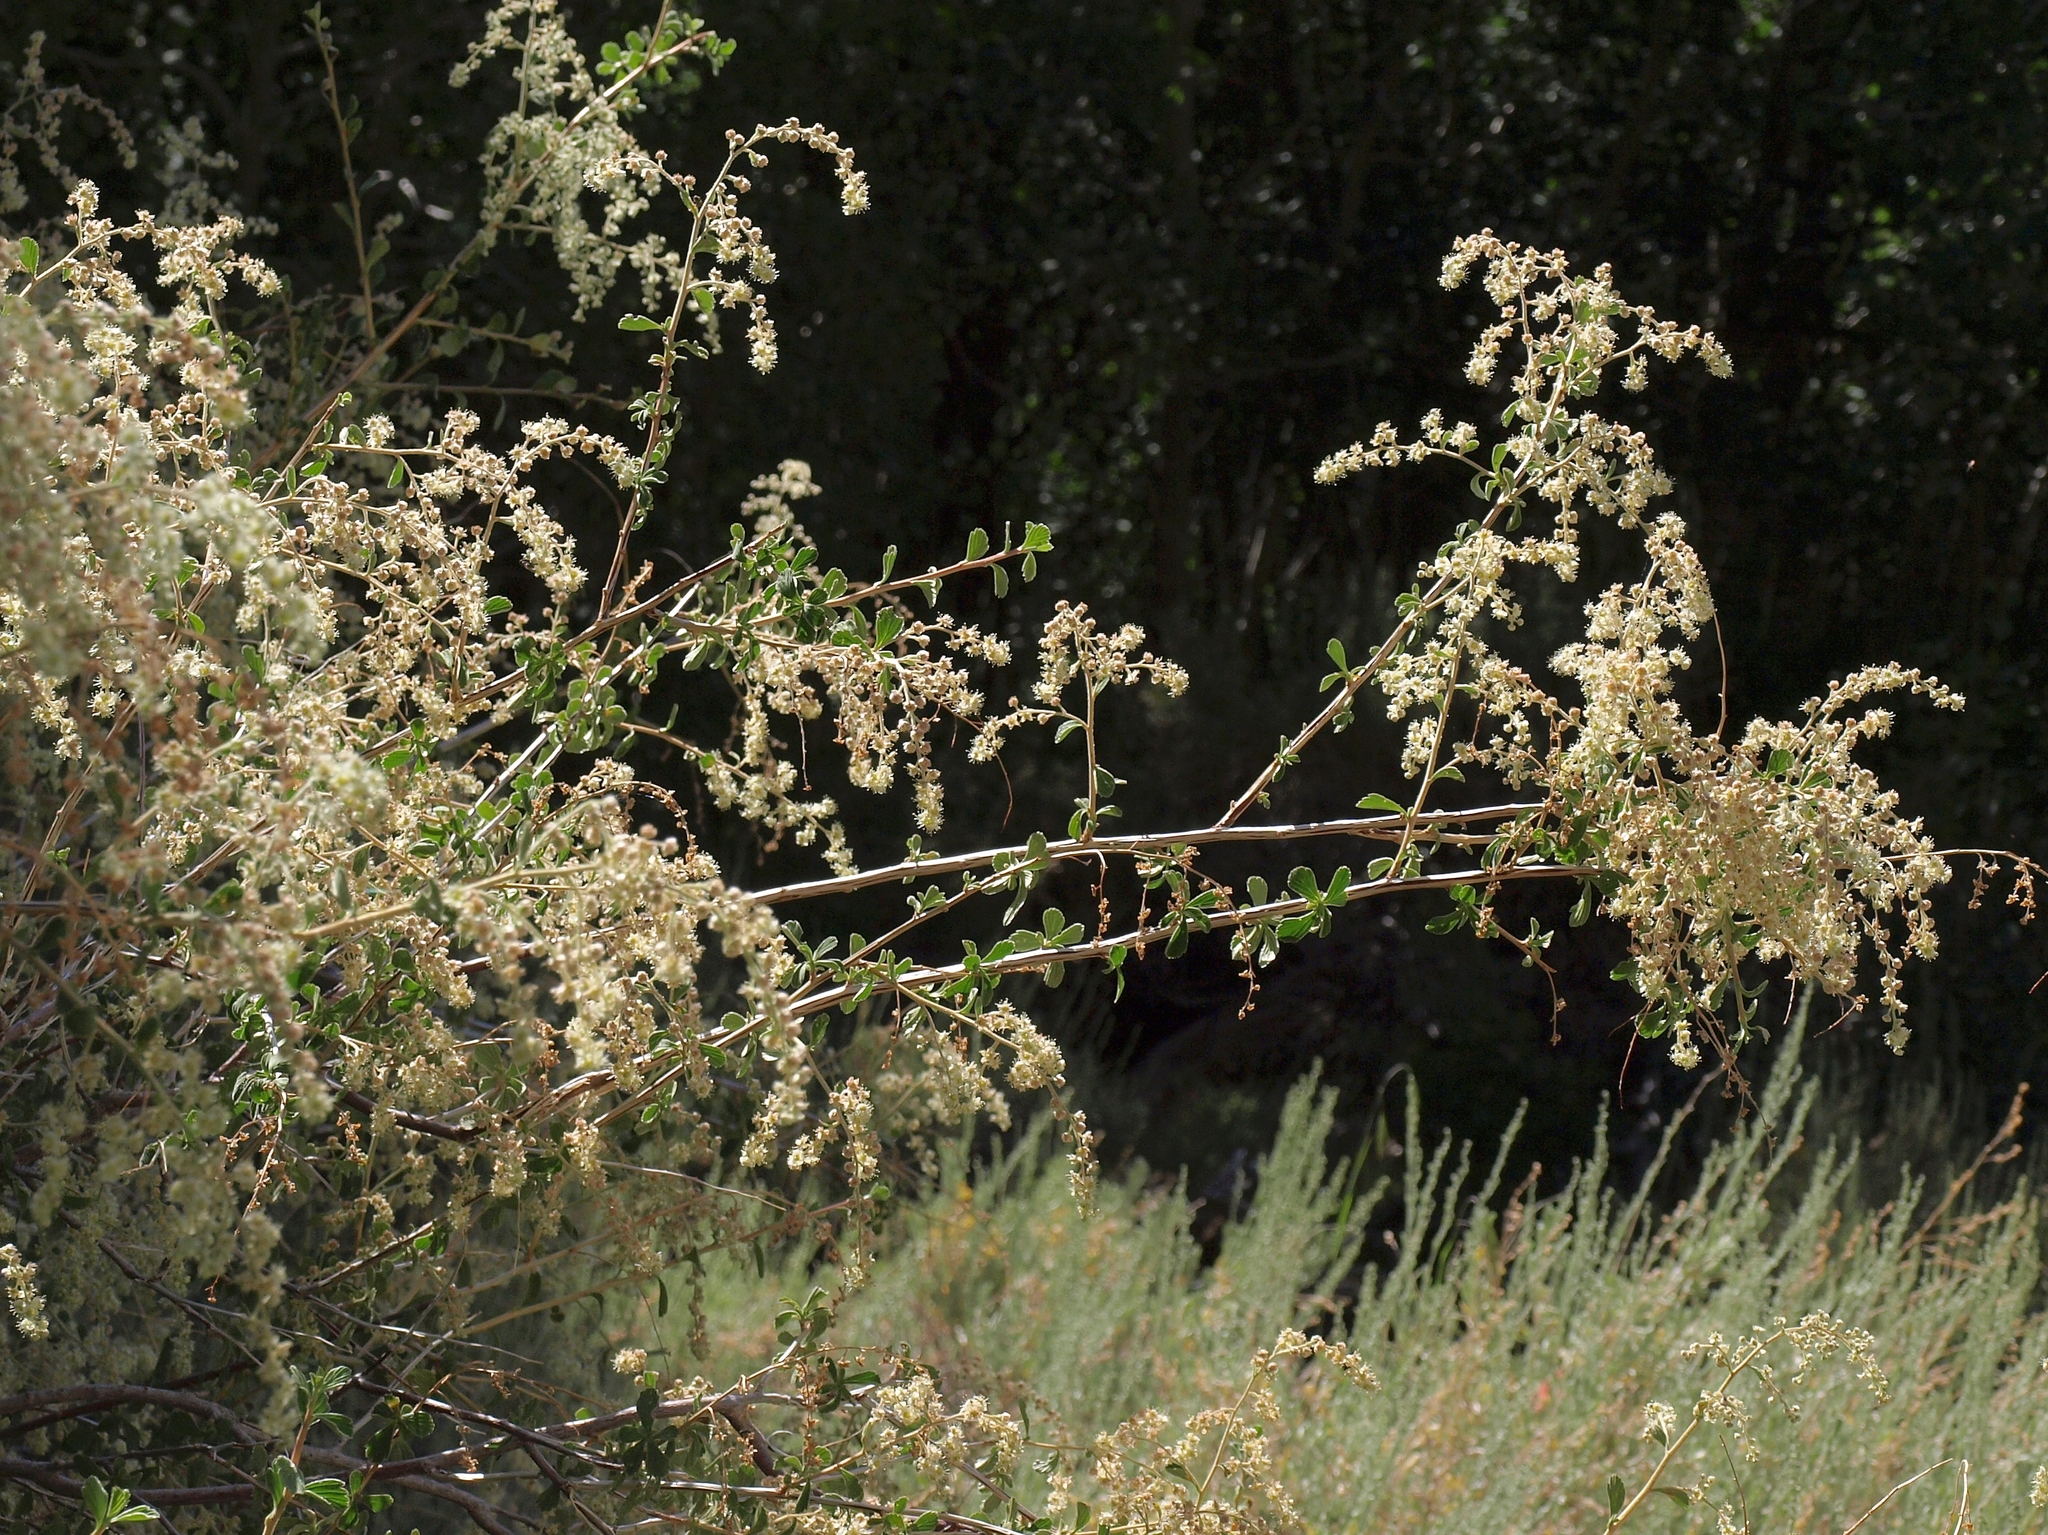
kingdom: Plantae
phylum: Tracheophyta
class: Magnoliopsida
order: Rosales
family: Rosaceae
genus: Holodiscus
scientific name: Holodiscus discolor
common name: Oceanspray
